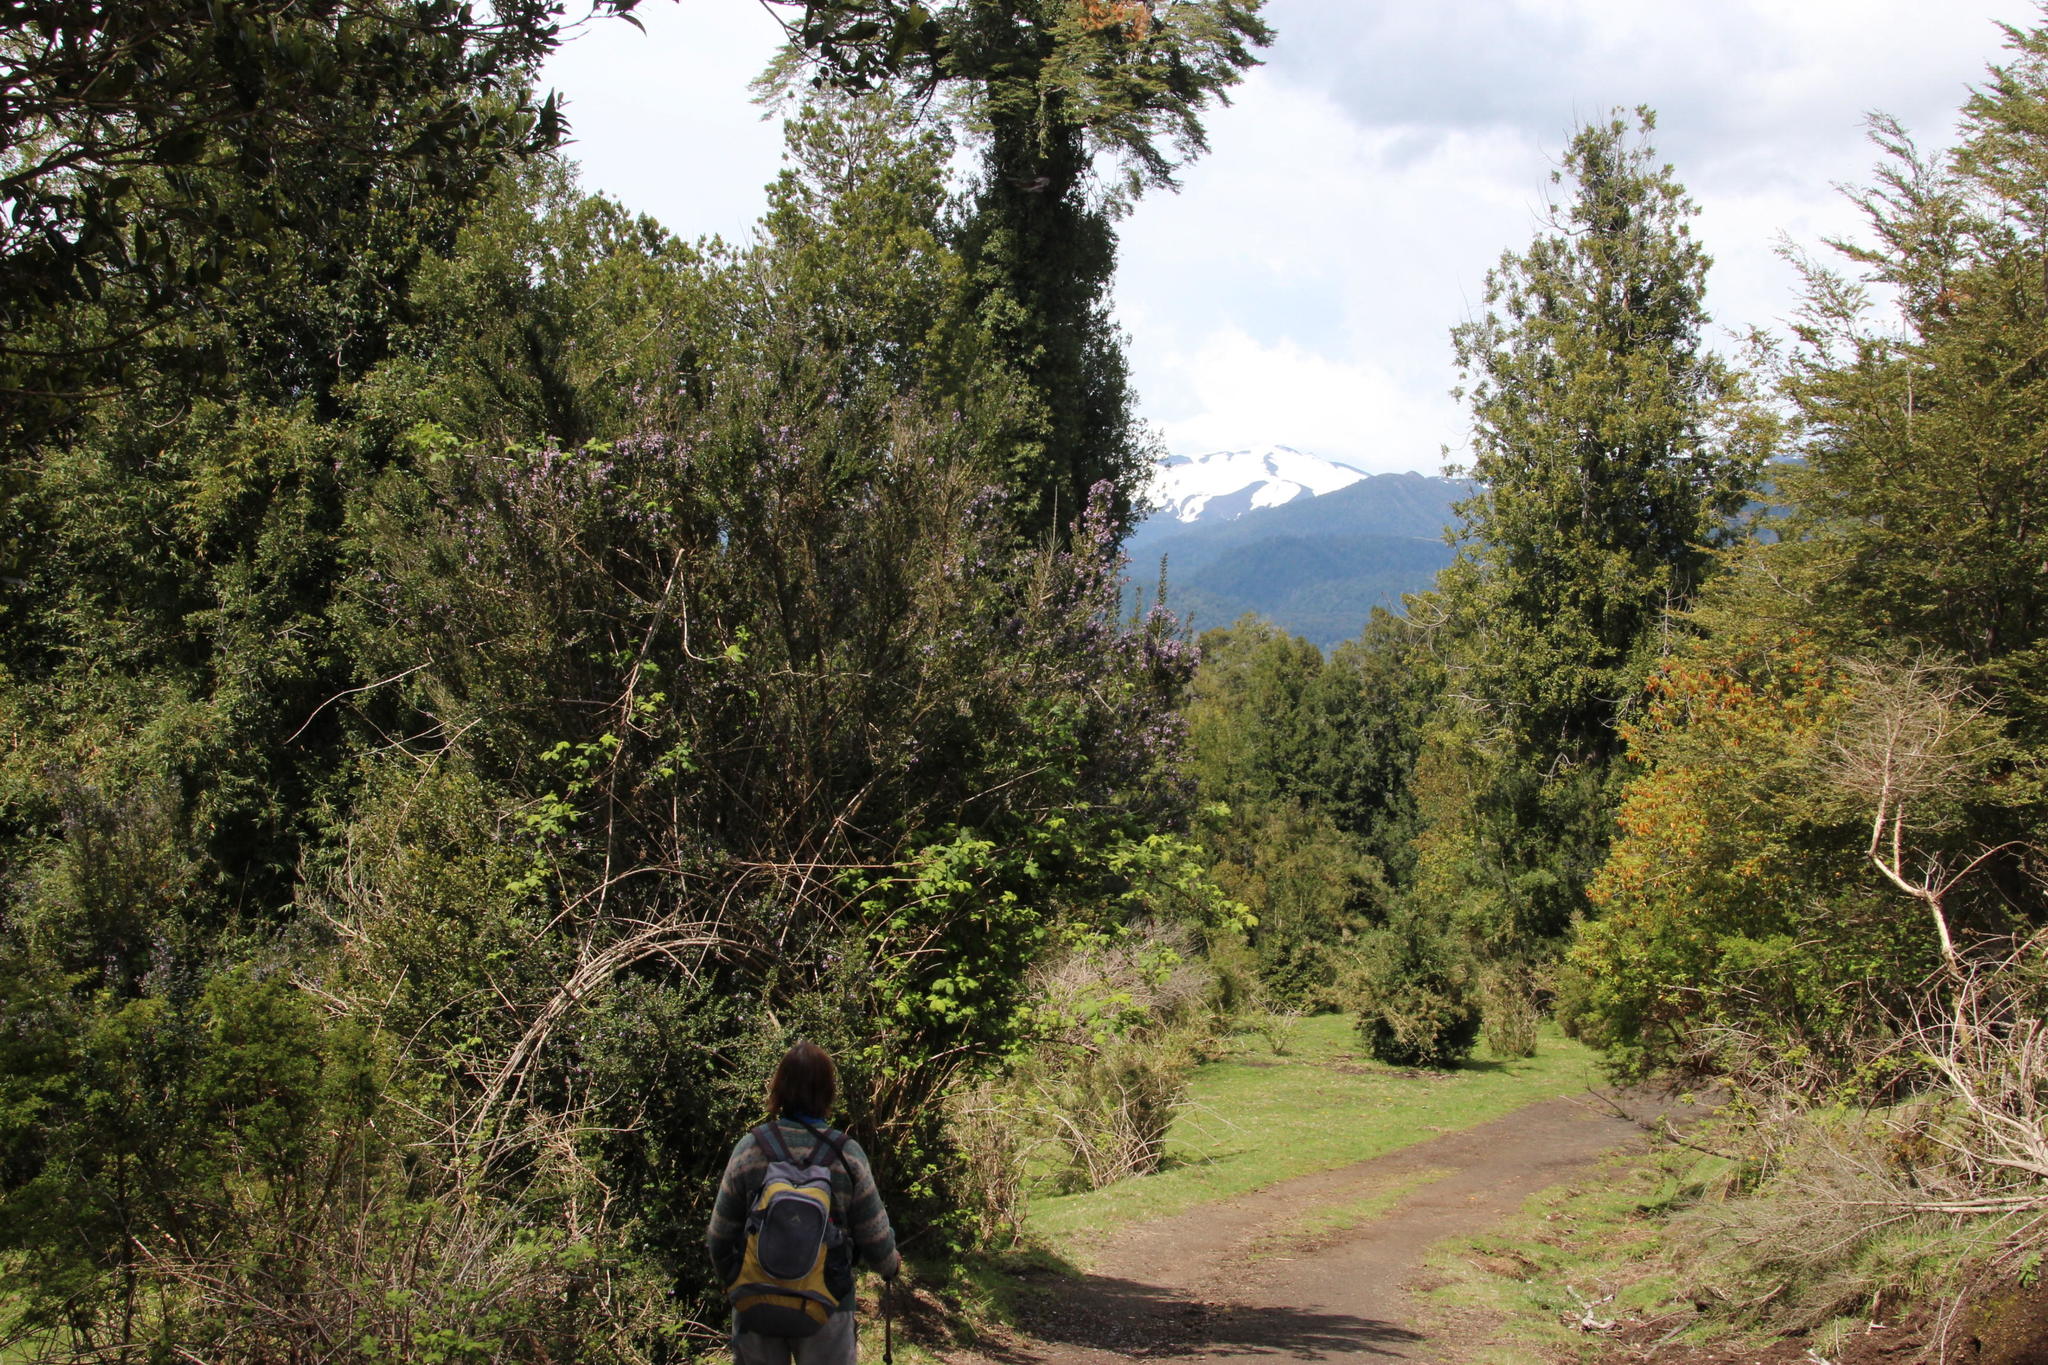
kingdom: Plantae
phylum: Tracheophyta
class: Magnoliopsida
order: Lamiales
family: Verbenaceae
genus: Rhaphithamnus
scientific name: Rhaphithamnus spinosus
